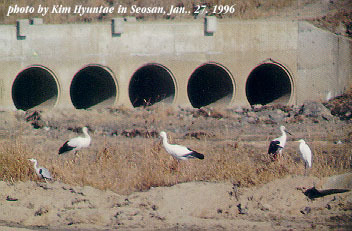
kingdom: Animalia
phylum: Chordata
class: Aves
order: Ciconiiformes
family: Ciconiidae
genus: Ciconia
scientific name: Ciconia boyciana
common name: Oriental stork
